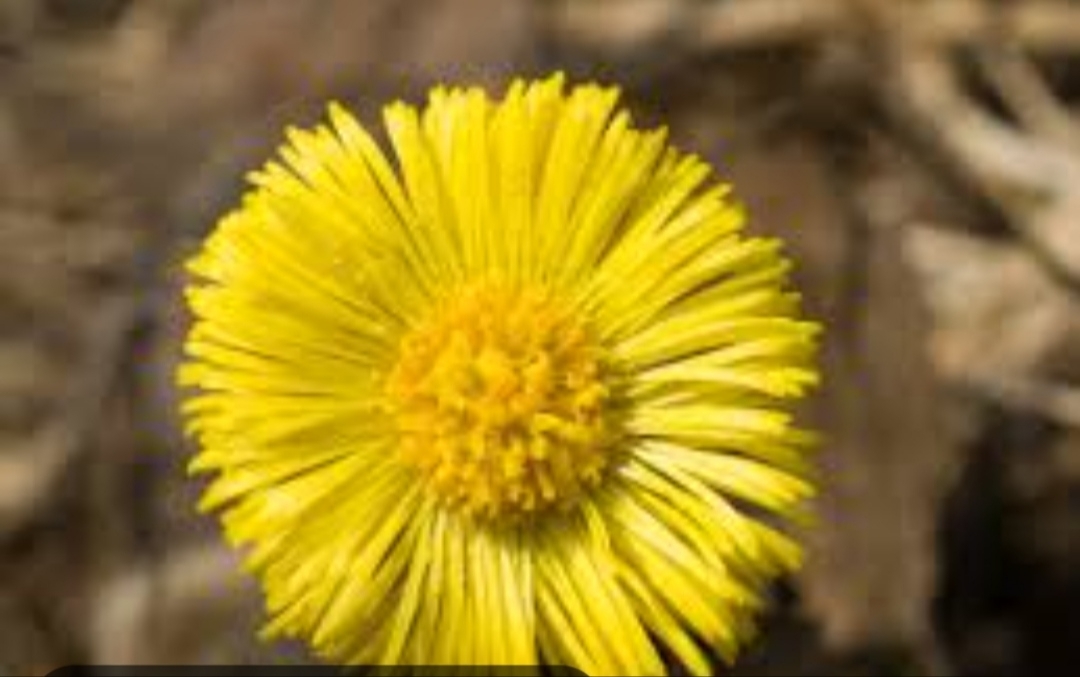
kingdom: Plantae
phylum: Tracheophyta
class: Magnoliopsida
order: Asterales
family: Asteraceae
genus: Tussilago
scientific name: Tussilago farfara
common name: Coltsfoot
